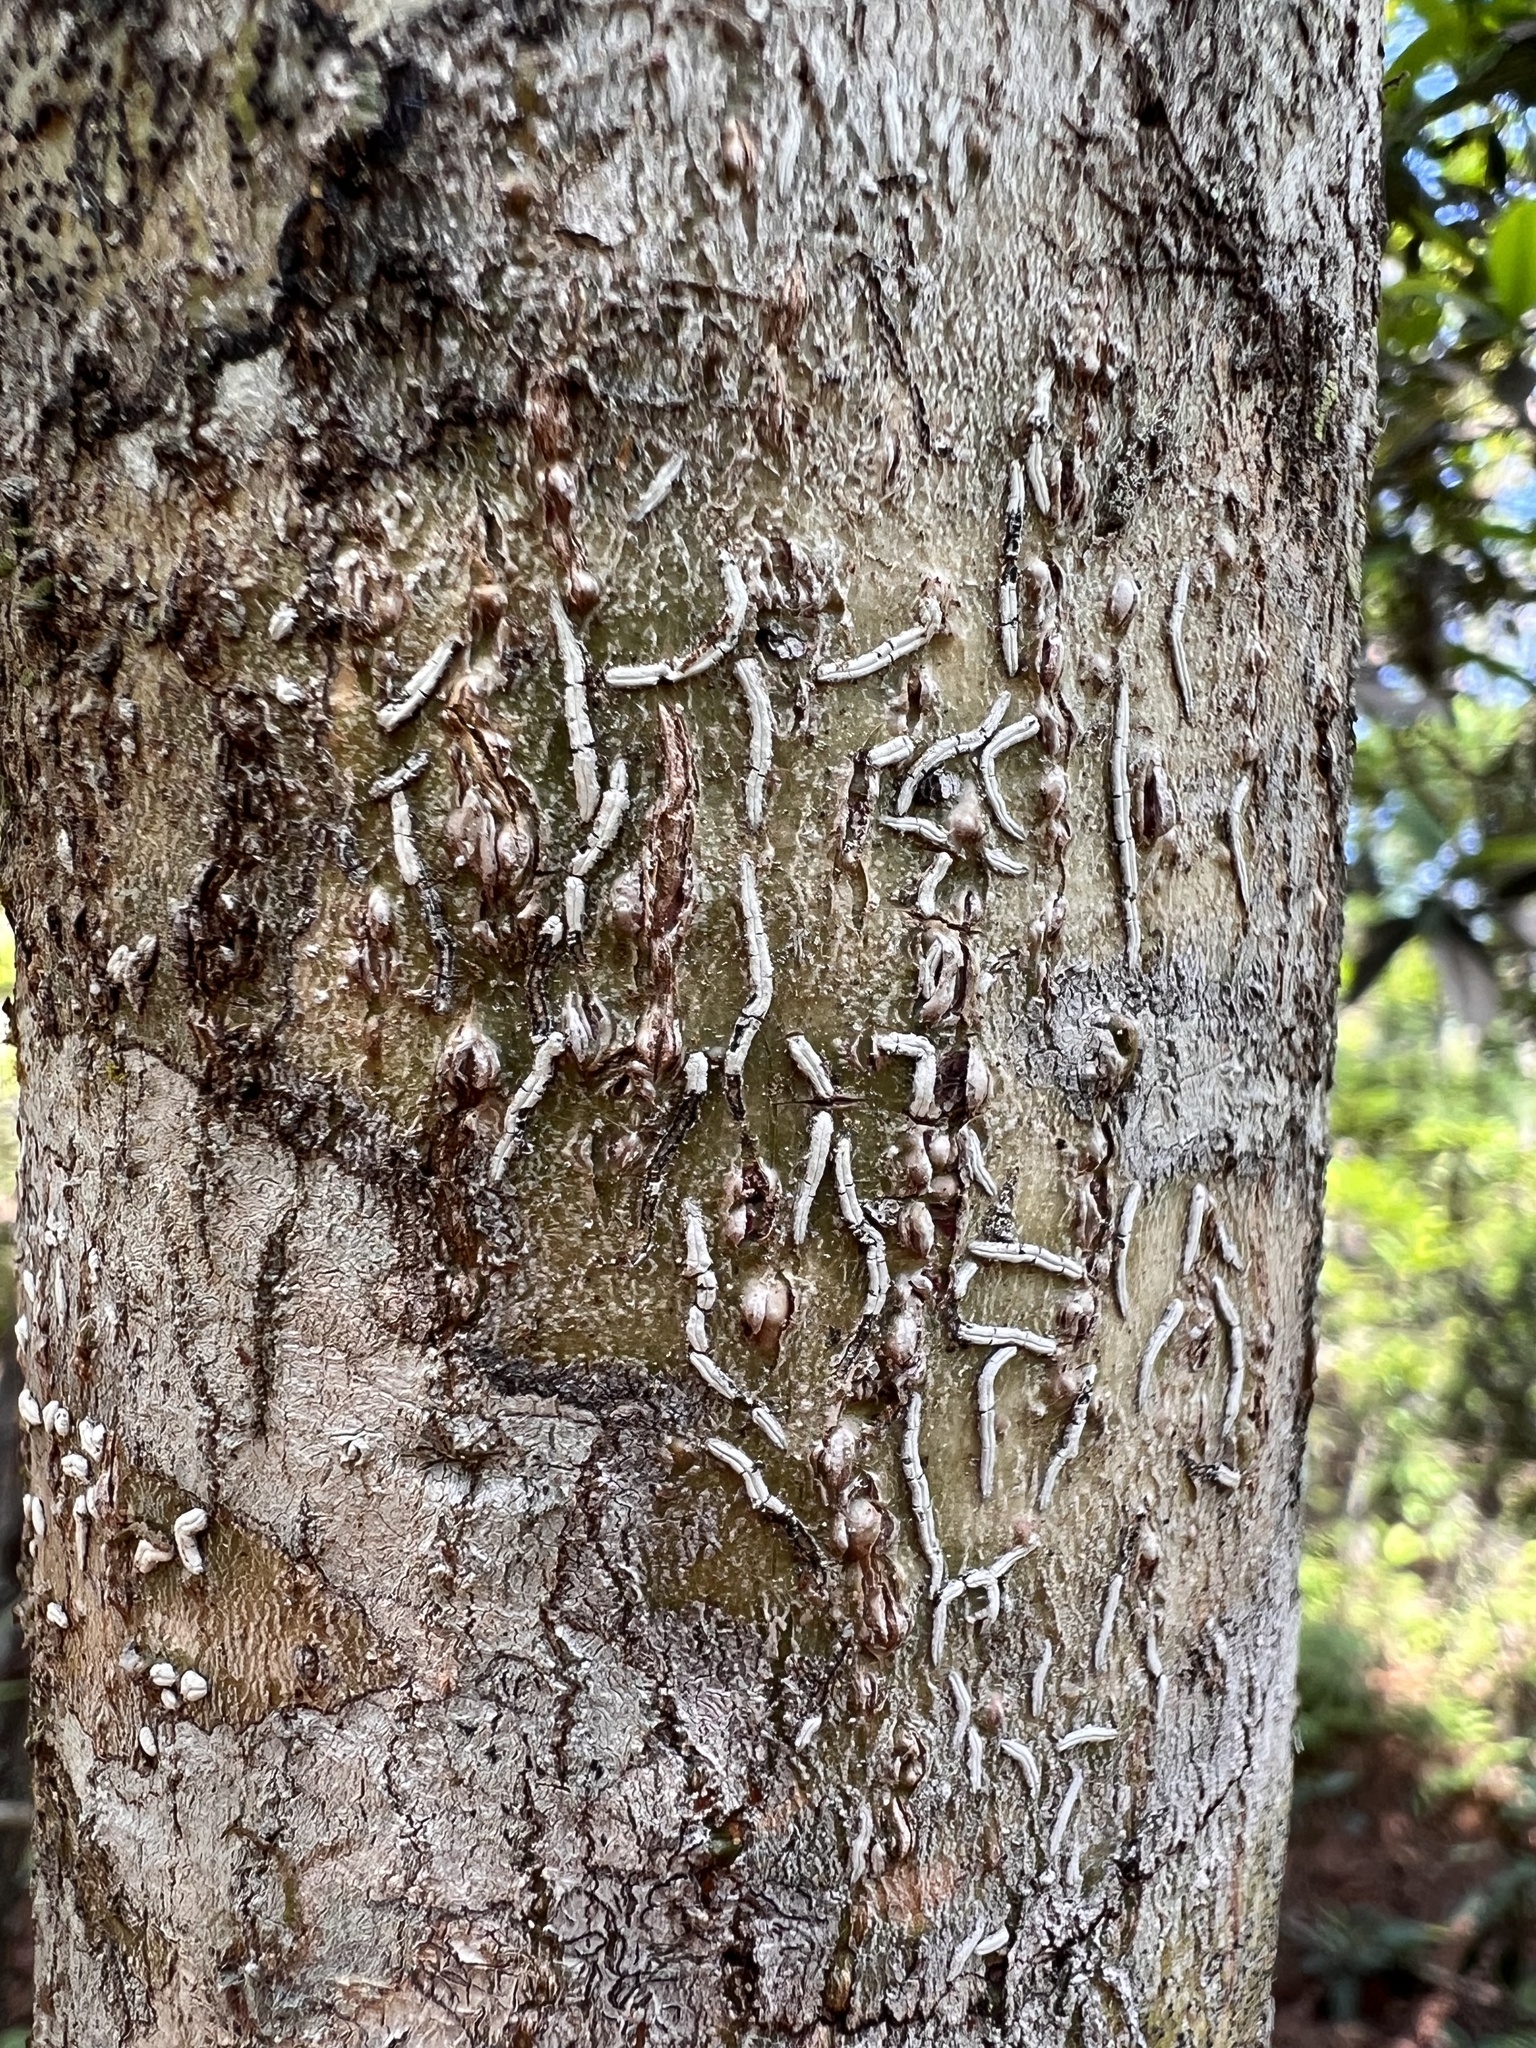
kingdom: Fungi
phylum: Ascomycota
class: Lecanoromycetes
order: Ostropales
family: Graphidaceae
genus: Dyplolabia
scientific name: Dyplolabia afzelii
